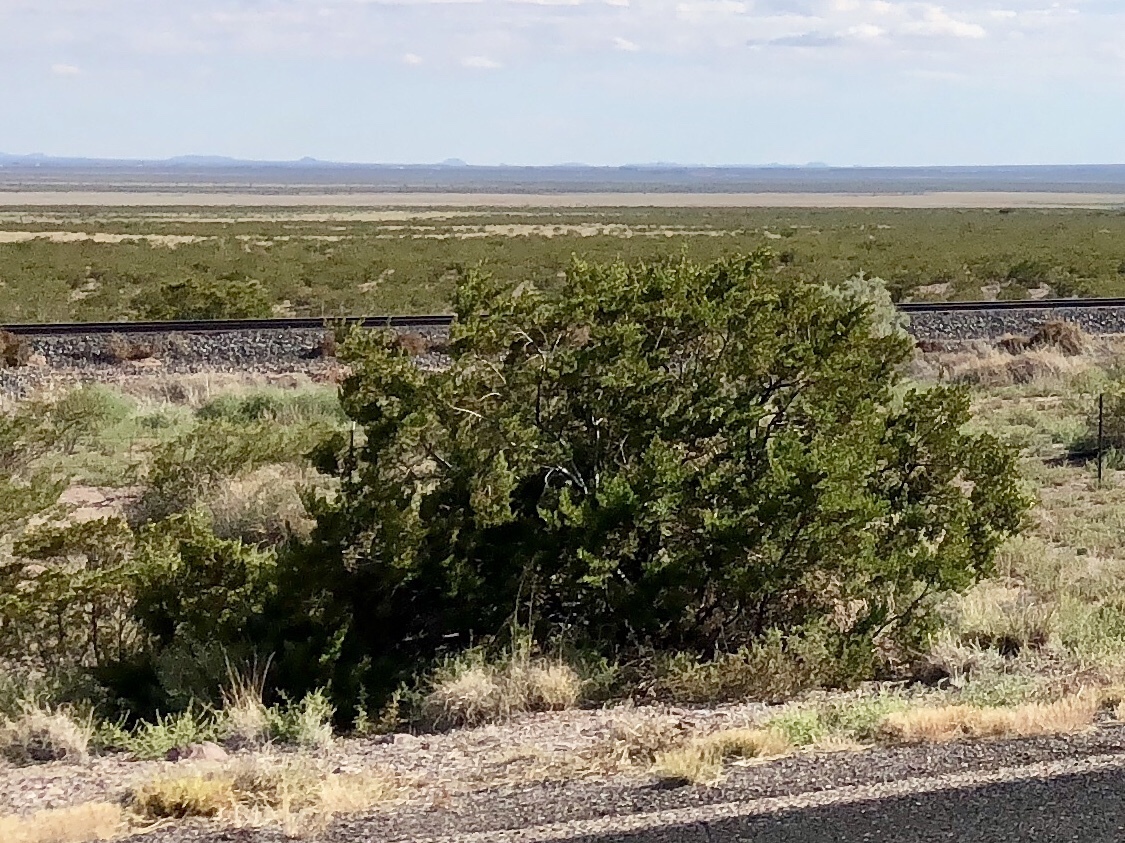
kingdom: Plantae
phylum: Tracheophyta
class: Magnoliopsida
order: Zygophyllales
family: Zygophyllaceae
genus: Larrea
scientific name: Larrea tridentata
